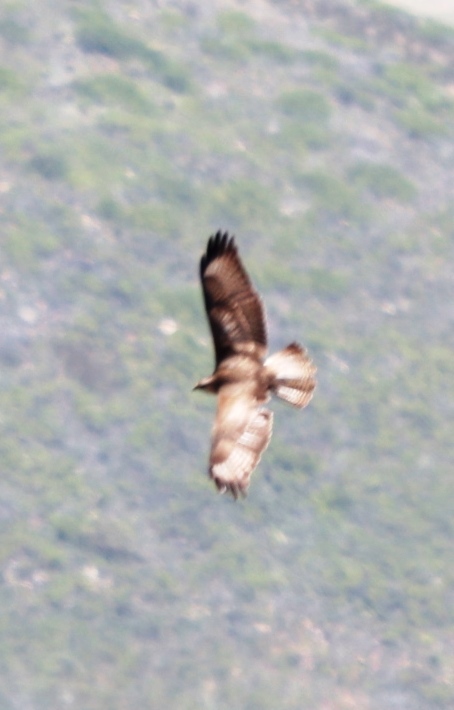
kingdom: Animalia
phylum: Chordata
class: Aves
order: Accipitriformes
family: Accipitridae
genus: Buteo
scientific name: Buteo rufofuscus
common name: Jackal buzzard
